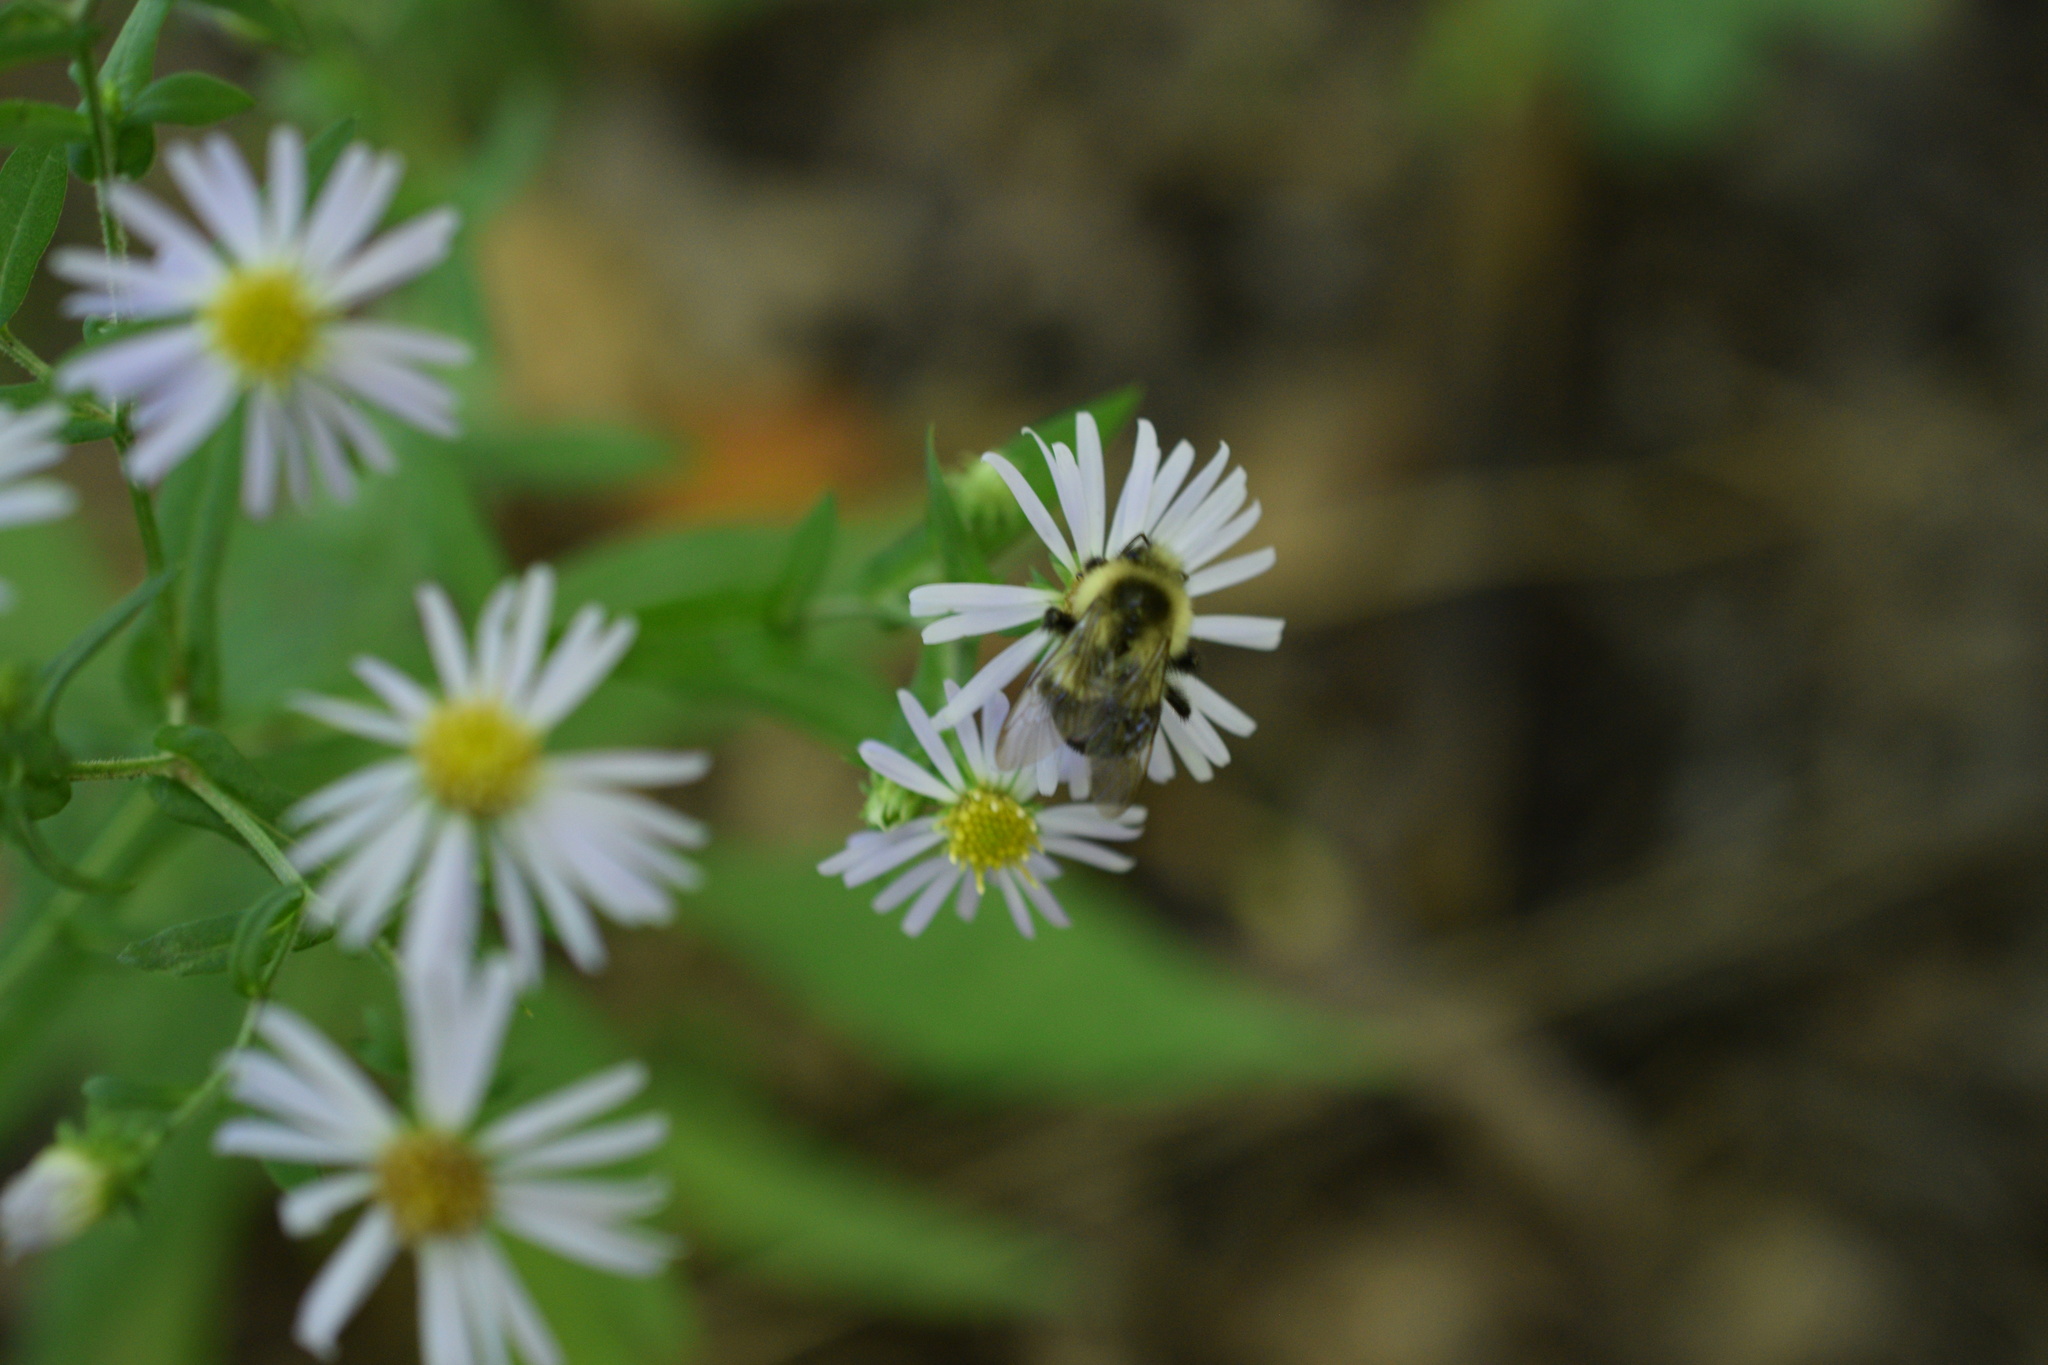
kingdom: Animalia
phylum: Arthropoda
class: Insecta
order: Hymenoptera
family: Apidae
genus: Bombus
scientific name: Bombus impatiens
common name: Common eastern bumble bee
